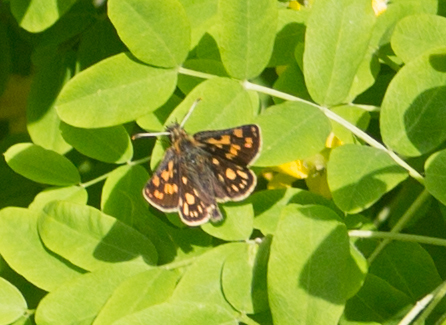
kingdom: Animalia
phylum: Arthropoda
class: Insecta
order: Lepidoptera
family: Hesperiidae
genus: Carterocephalus
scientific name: Carterocephalus palaemon
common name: Chequered skipper
